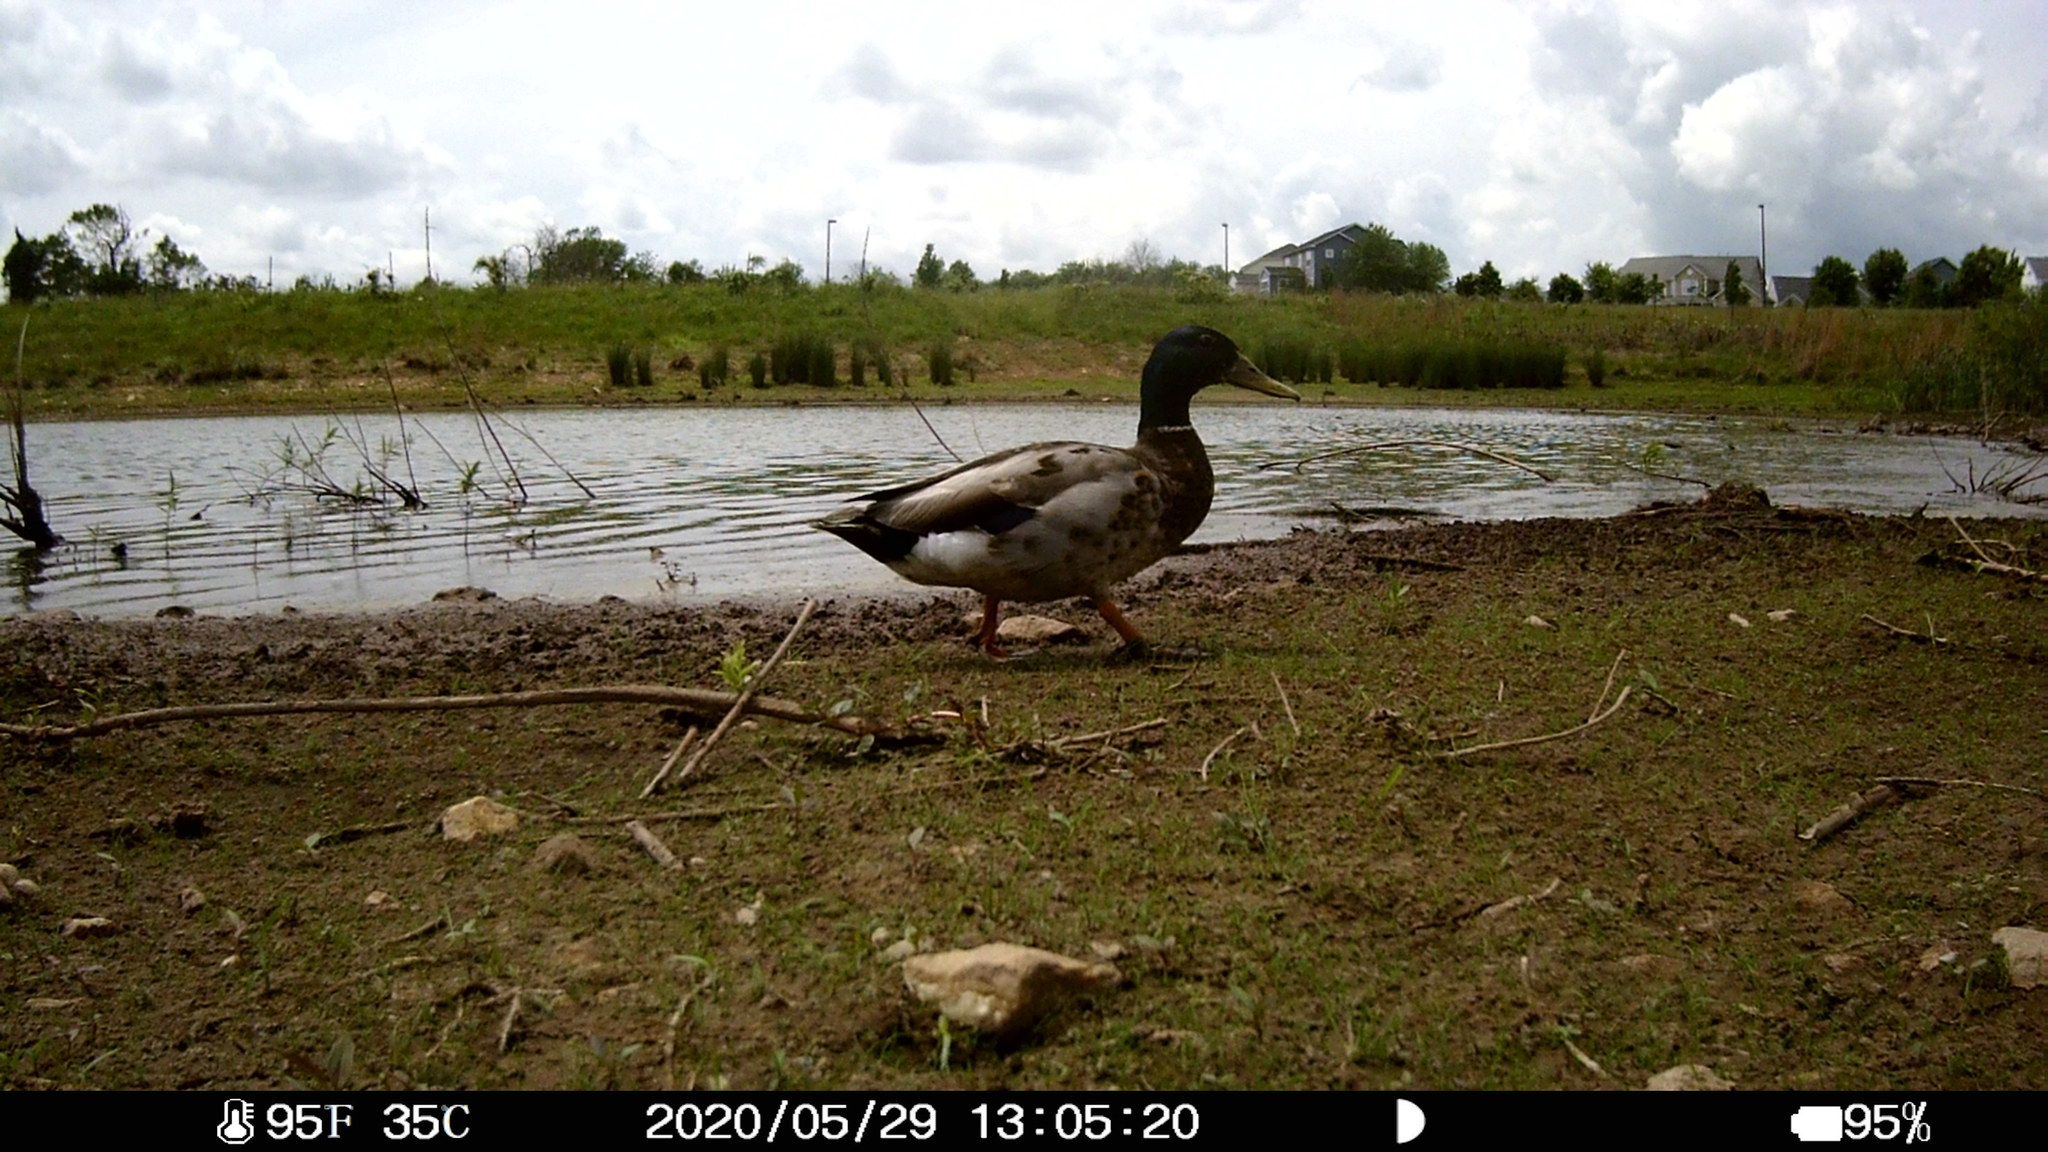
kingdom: Animalia
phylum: Chordata
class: Aves
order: Anseriformes
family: Anatidae
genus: Anas
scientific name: Anas platyrhynchos
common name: Mallard
